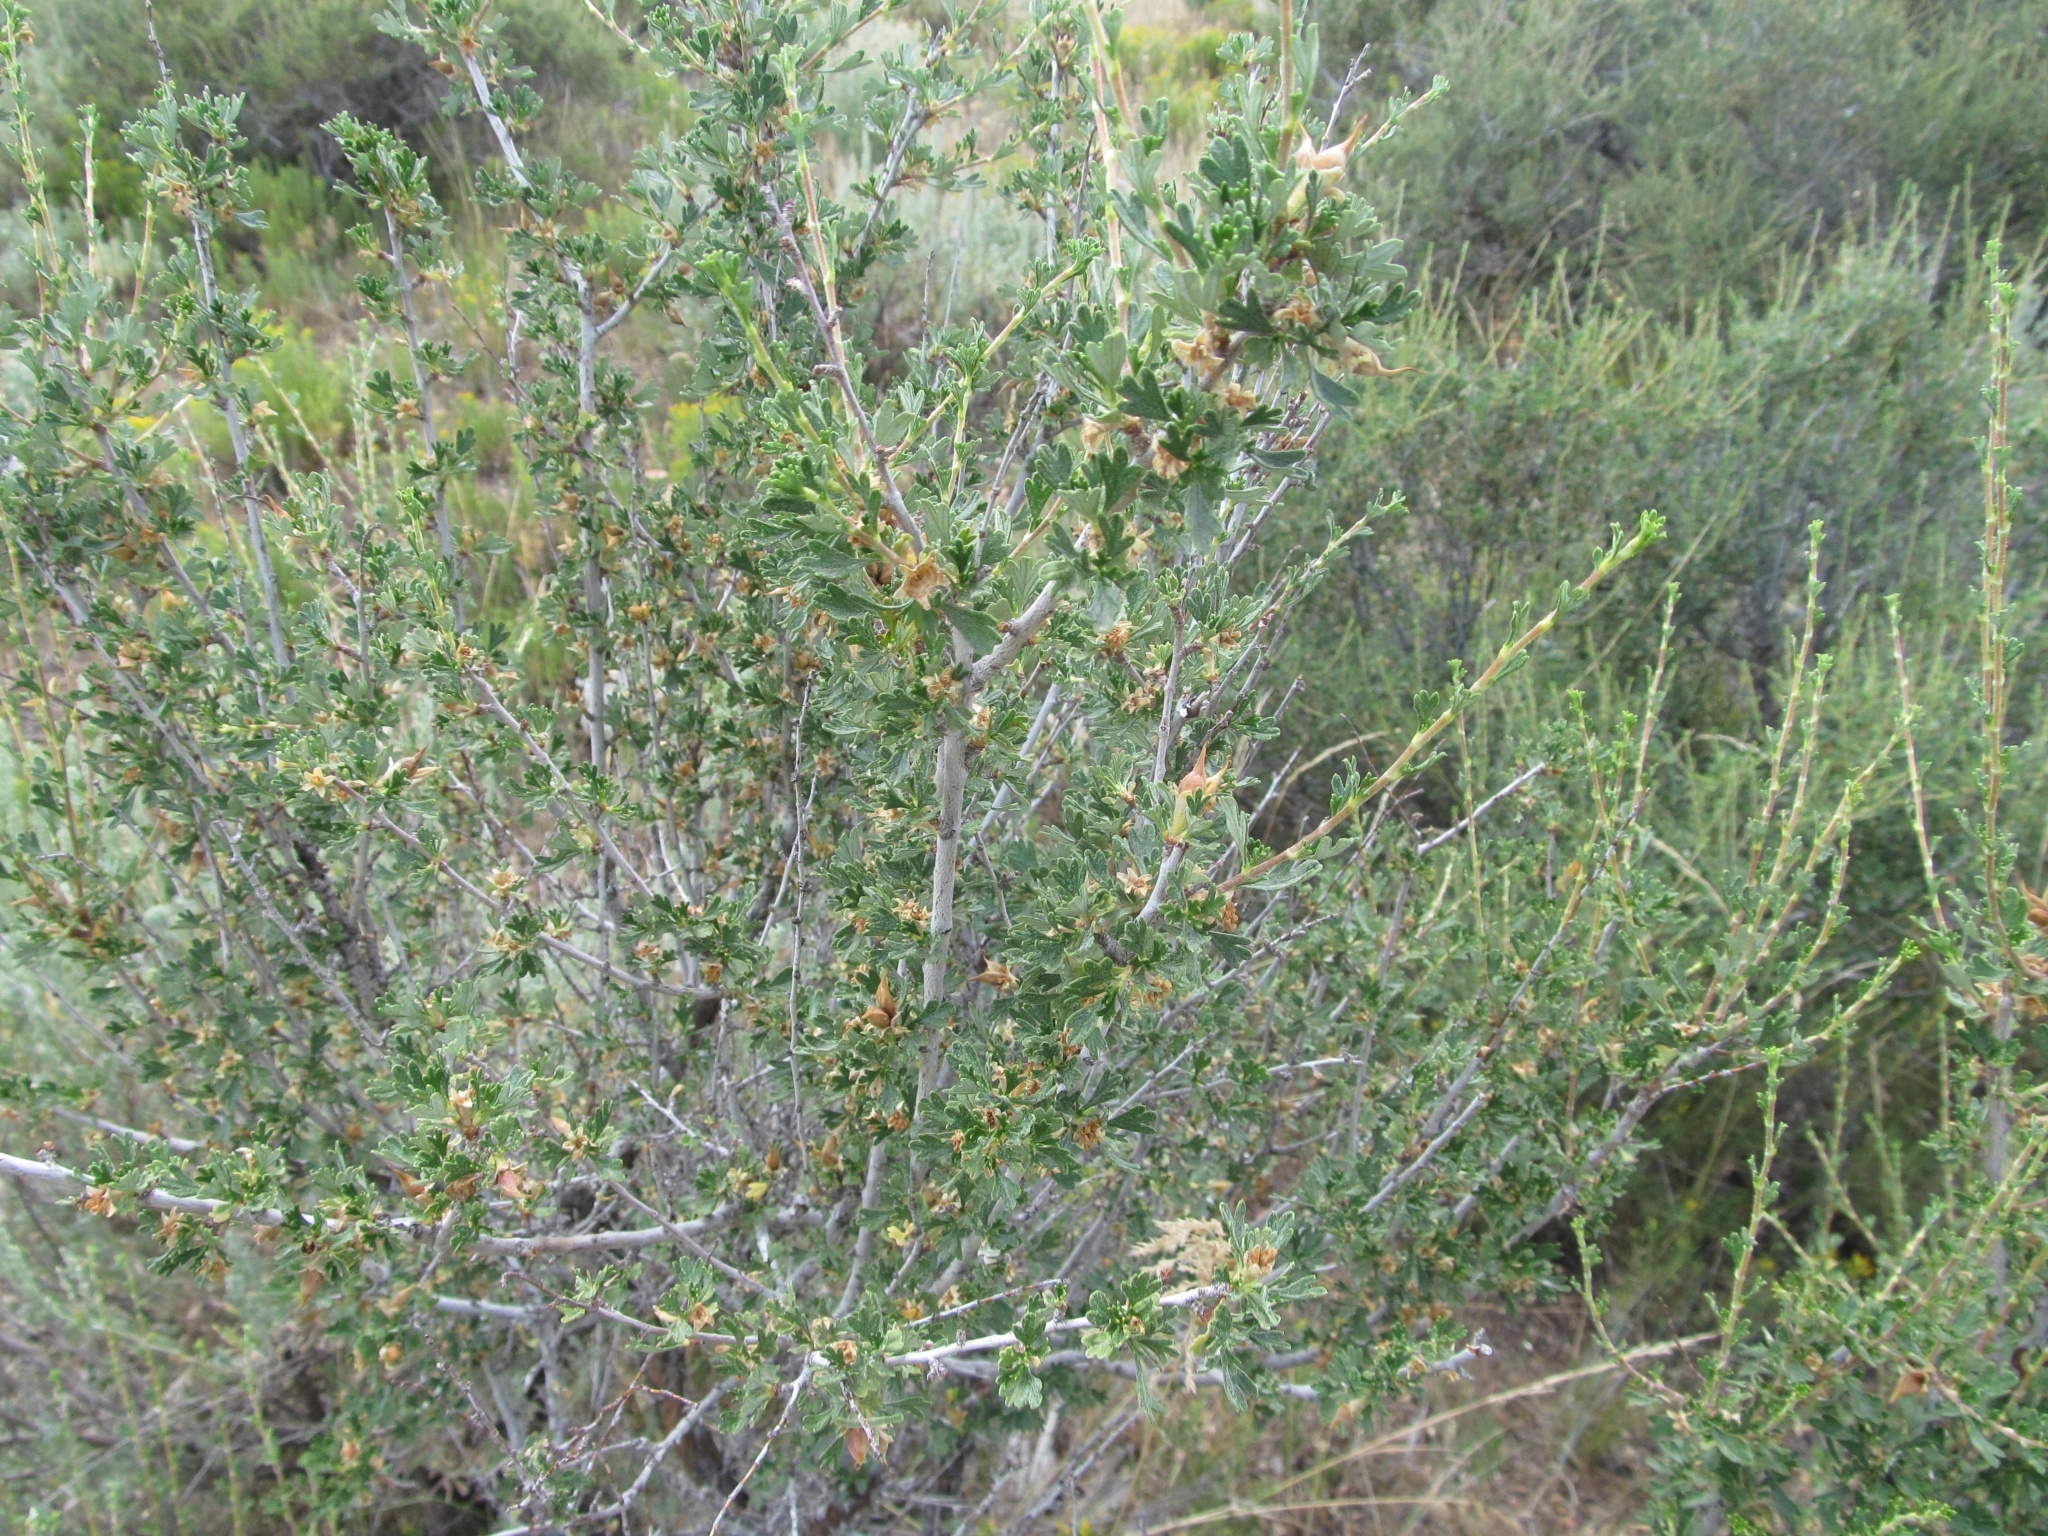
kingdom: Plantae
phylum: Tracheophyta
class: Magnoliopsida
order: Rosales
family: Rosaceae
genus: Purshia
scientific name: Purshia tridentata
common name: Antelope bitterbrush
